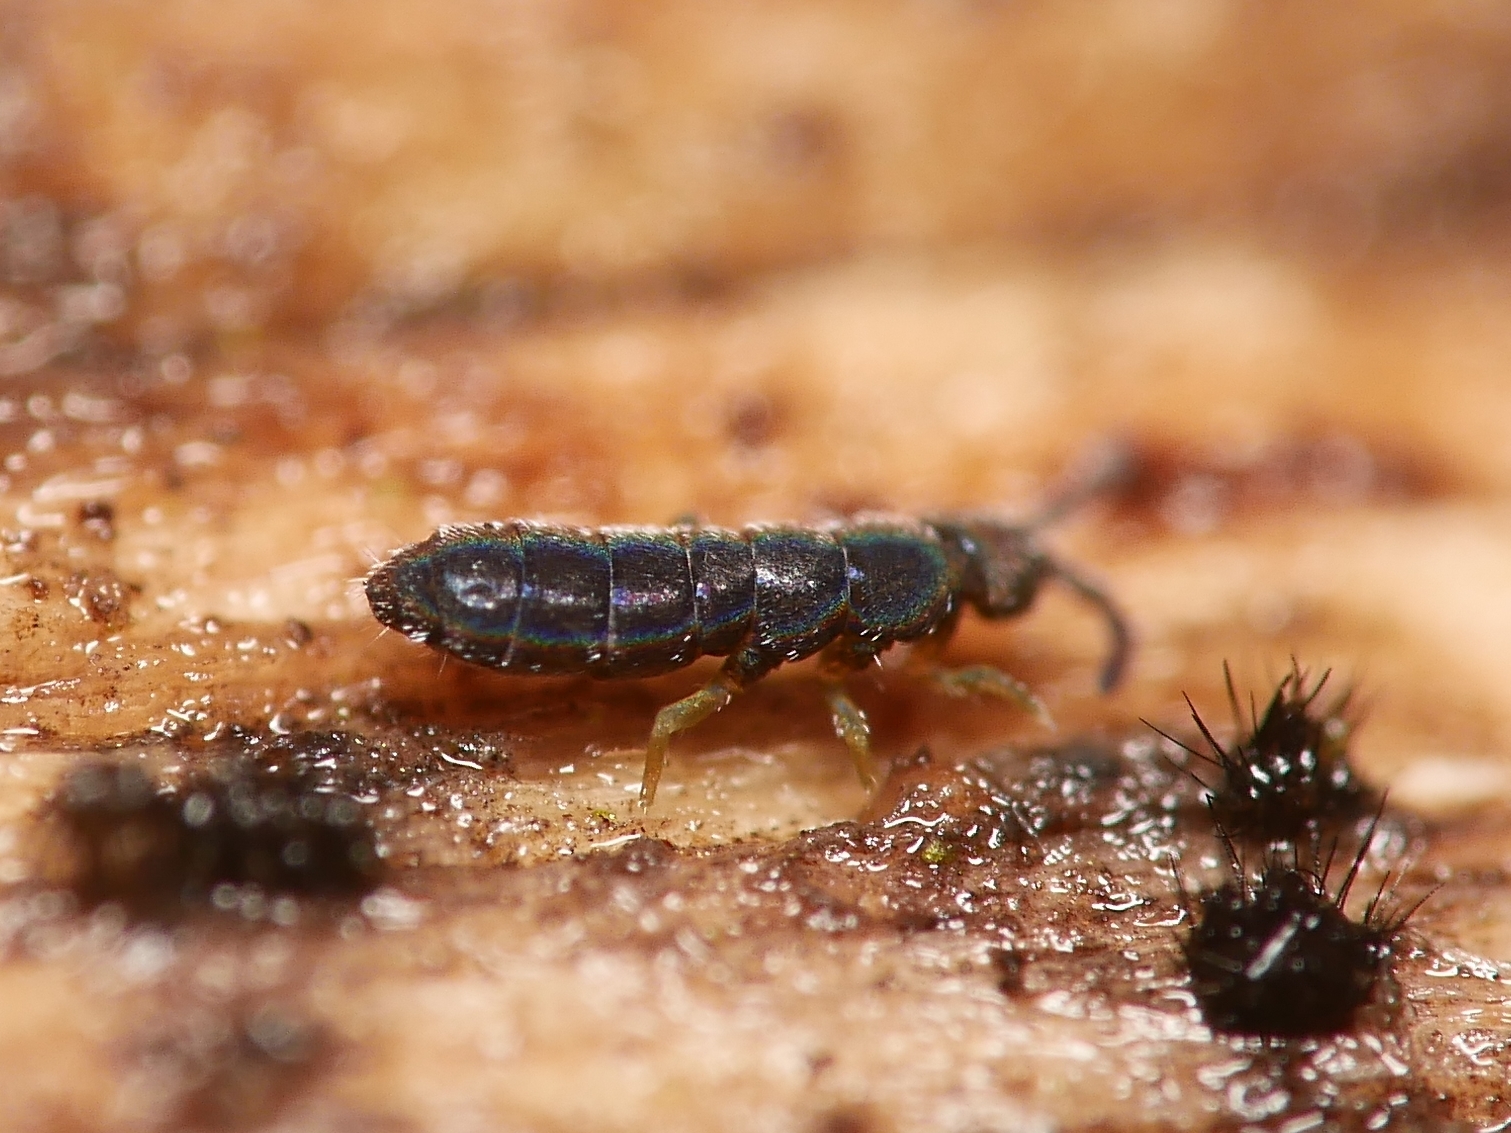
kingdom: Animalia
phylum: Arthropoda
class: Collembola
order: Entomobryomorpha
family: Isotomidae
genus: Vertagopus
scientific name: Vertagopus asiaticus
